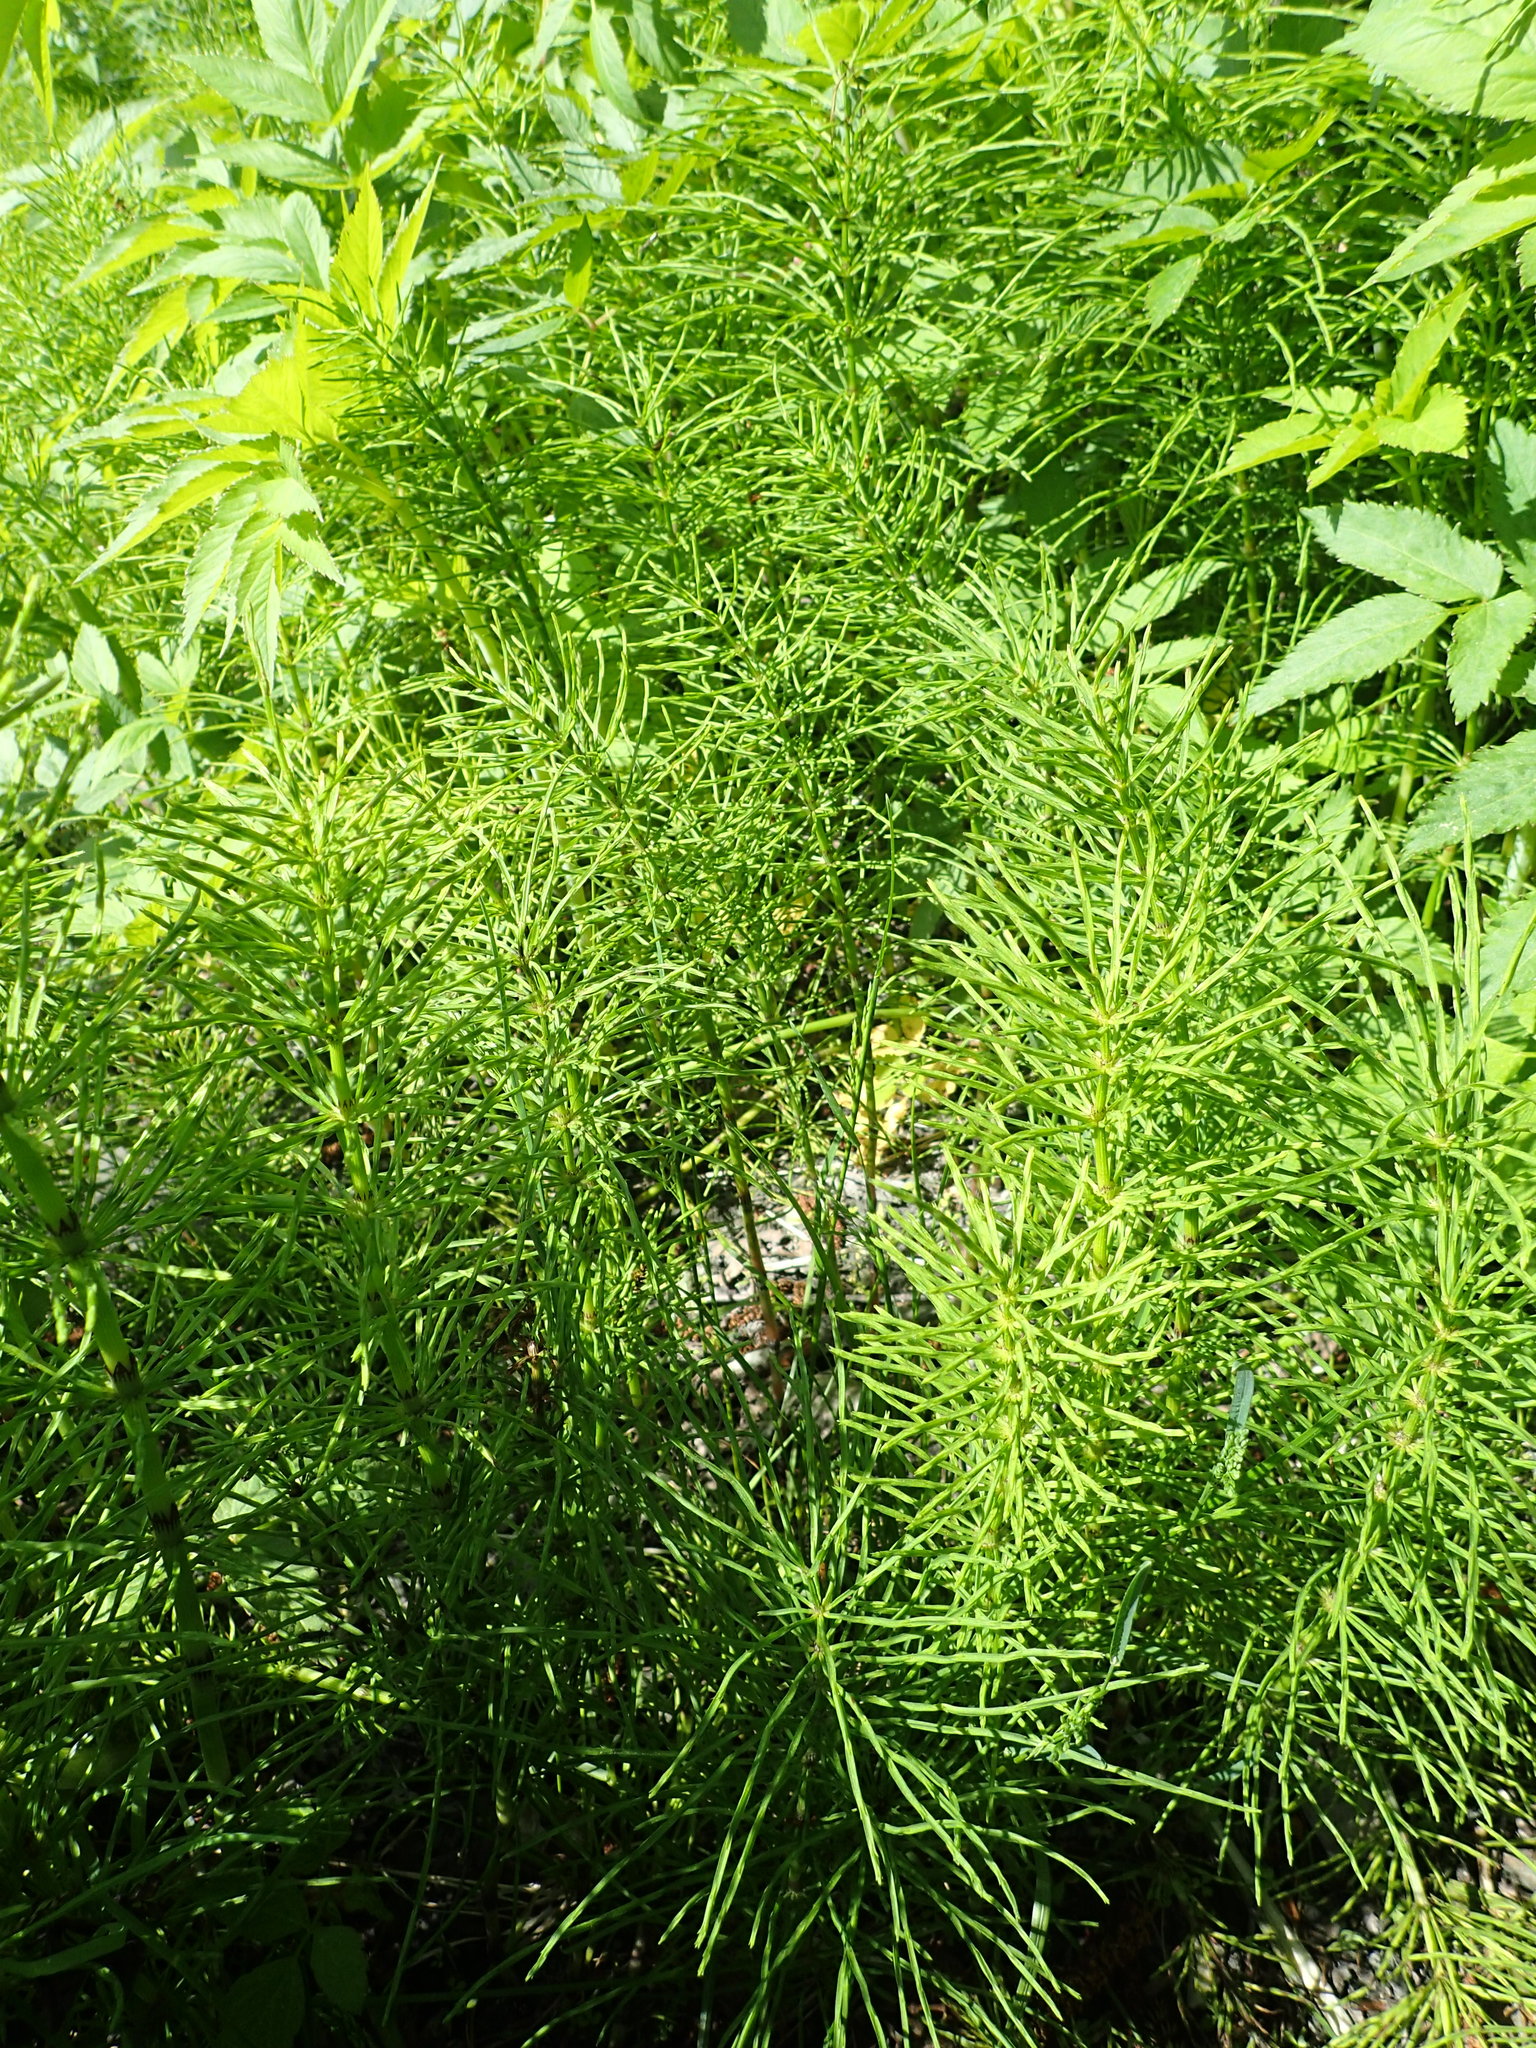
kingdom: Plantae
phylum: Tracheophyta
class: Polypodiopsida
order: Equisetales
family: Equisetaceae
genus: Equisetum
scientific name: Equisetum arvense
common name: Field horsetail
